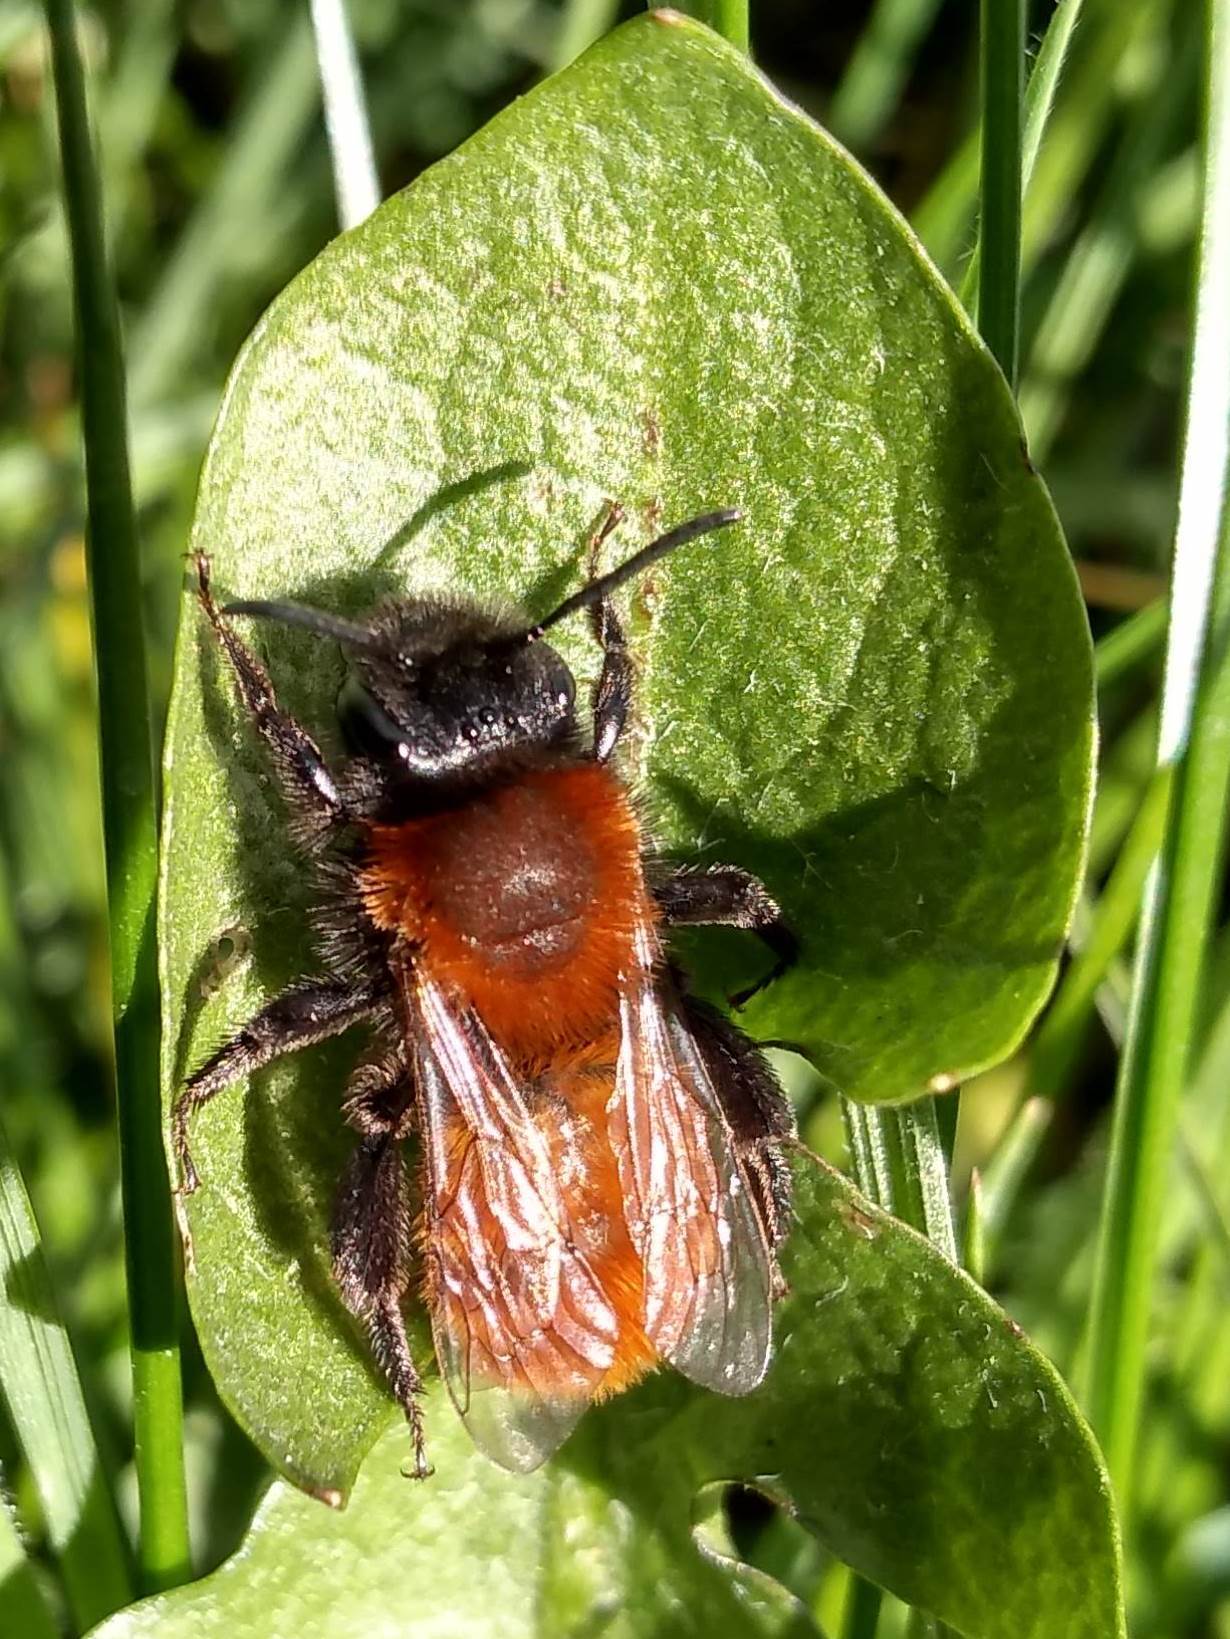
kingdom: Animalia
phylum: Arthropoda
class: Insecta
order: Hymenoptera
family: Andrenidae
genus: Andrena
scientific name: Andrena fulva
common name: Tawny mining bee
